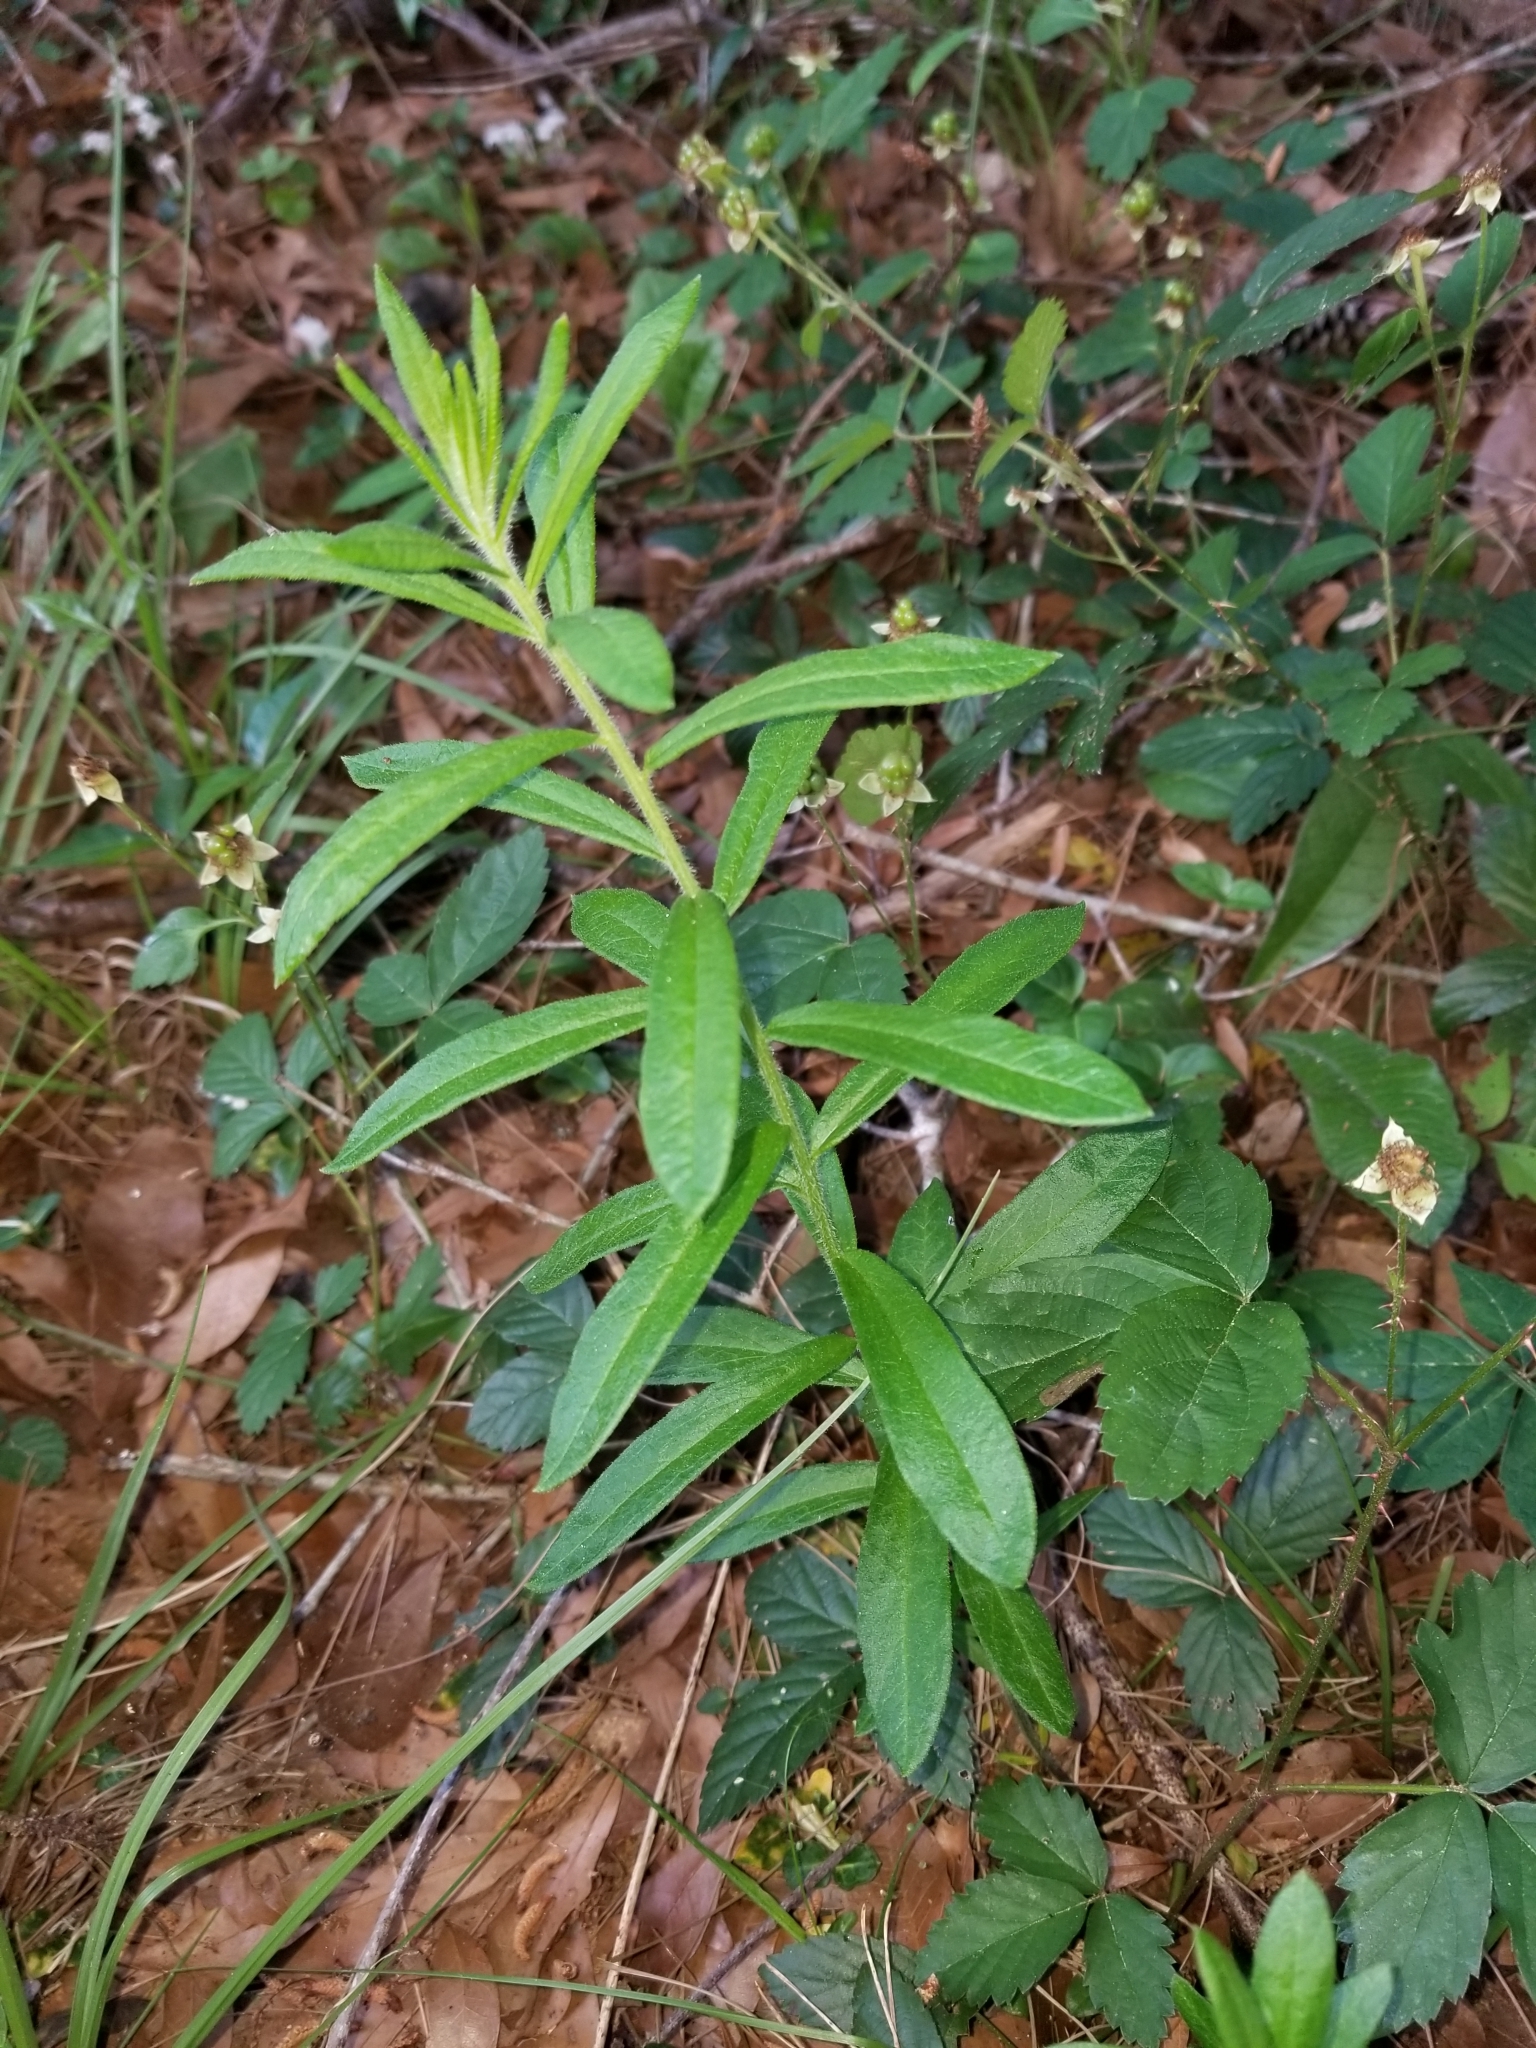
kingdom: Plantae
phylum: Tracheophyta
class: Magnoliopsida
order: Gentianales
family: Apocynaceae
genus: Asclepias
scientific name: Asclepias tuberosa
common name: Butterfly milkweed
